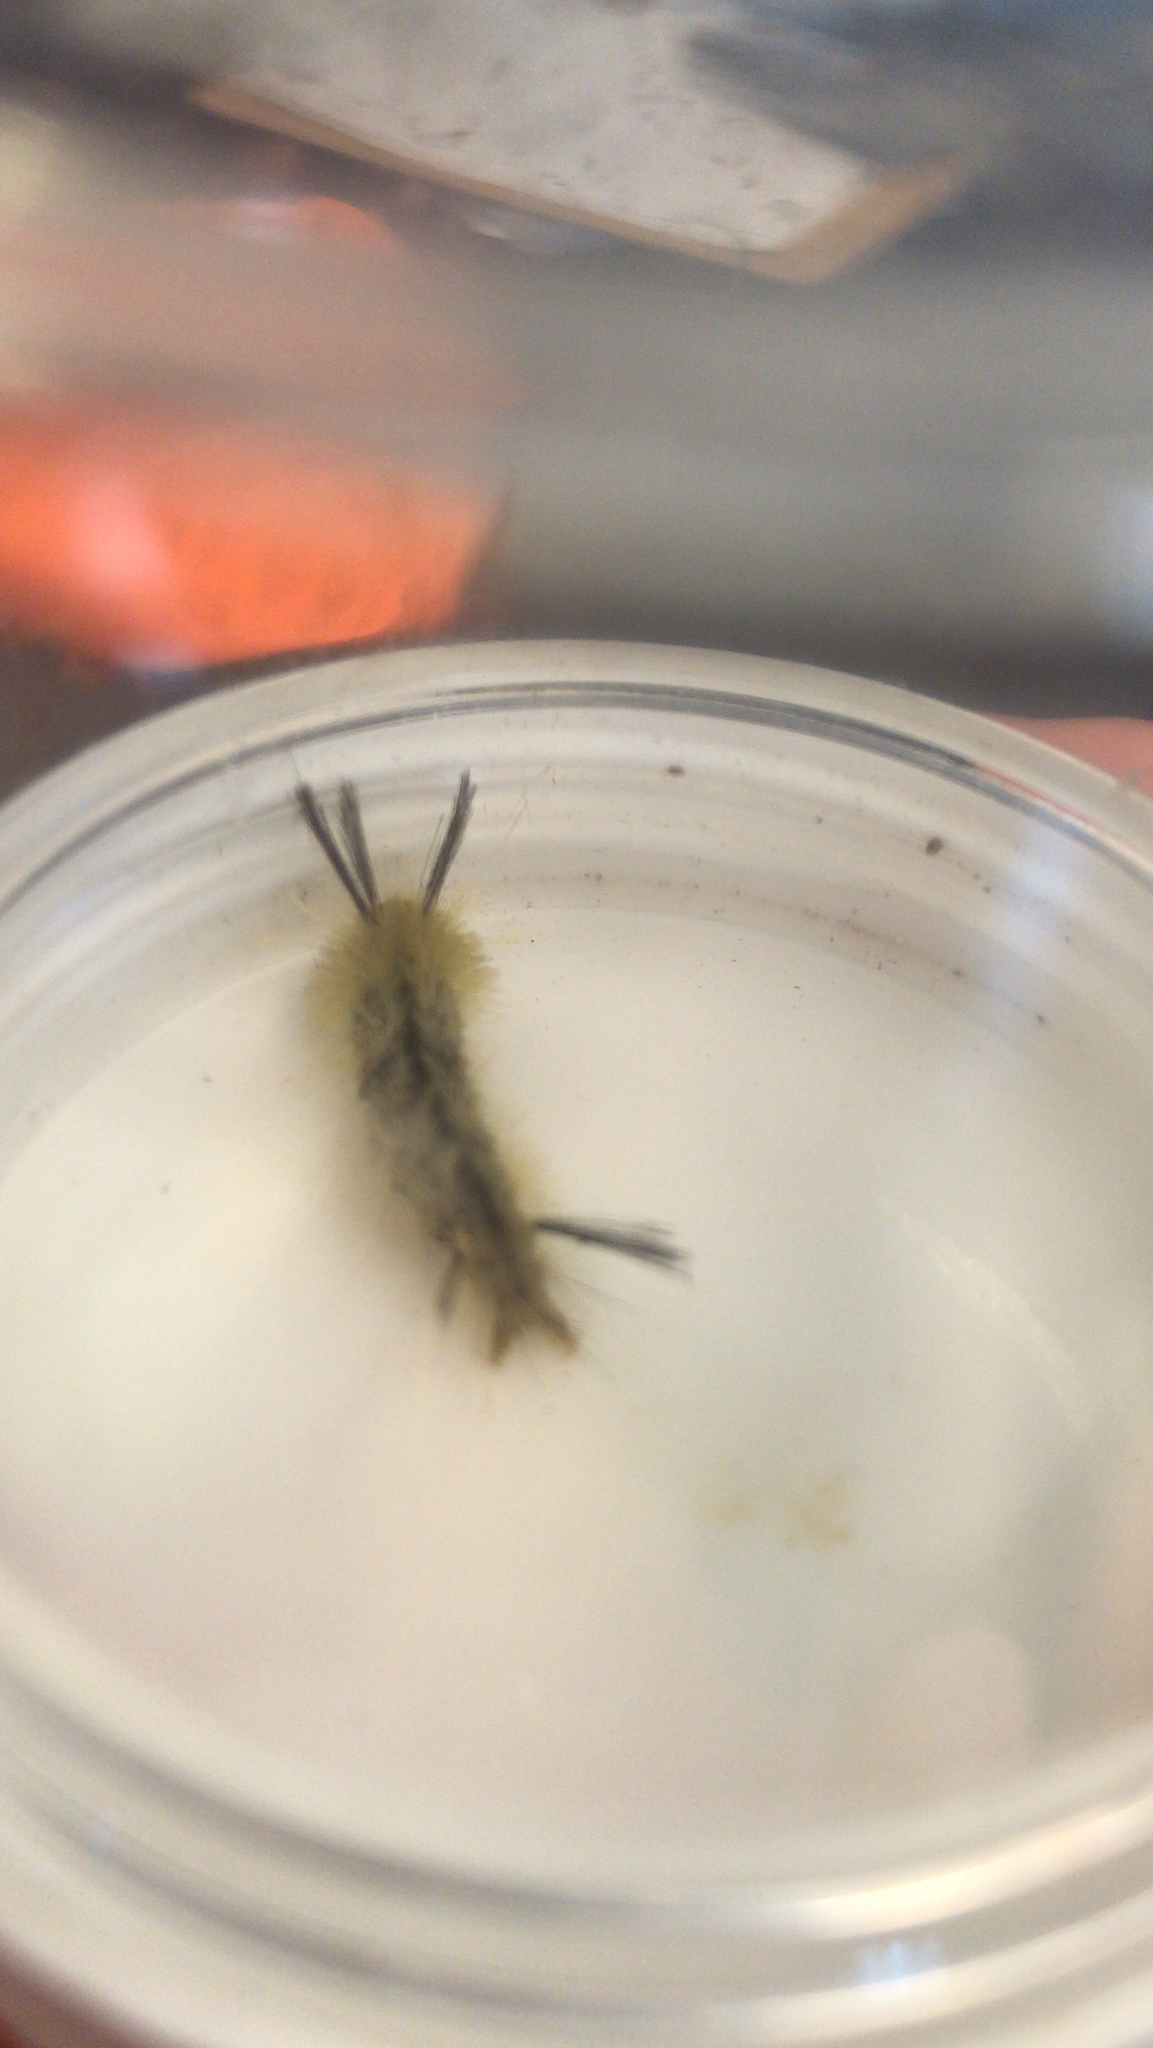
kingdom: Animalia
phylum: Arthropoda
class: Insecta
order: Lepidoptera
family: Erebidae
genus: Halysidota
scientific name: Halysidota tessellaris
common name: Banded tussock moth
